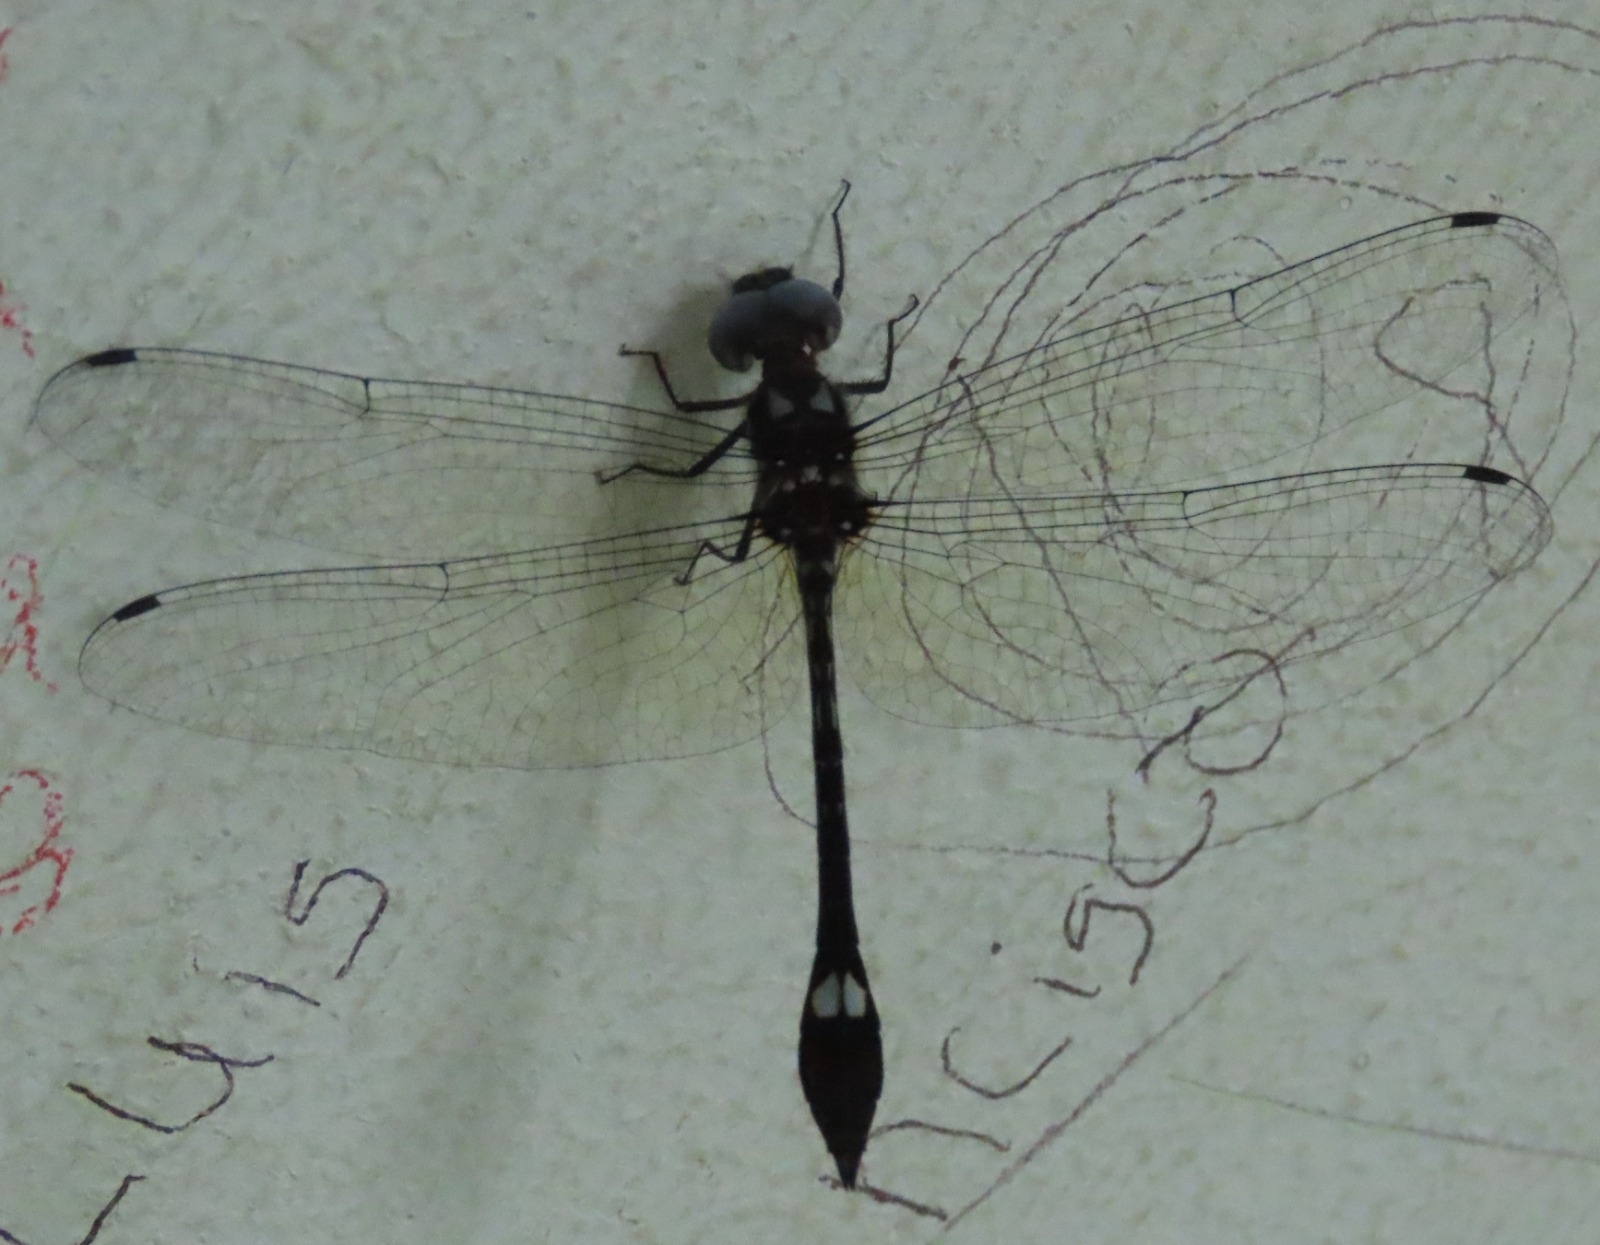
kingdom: Animalia
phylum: Arthropoda
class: Insecta
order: Odonata
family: Libellulidae
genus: Macrothemis
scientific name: Macrothemis pseudimitans
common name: White-tailed sylph
